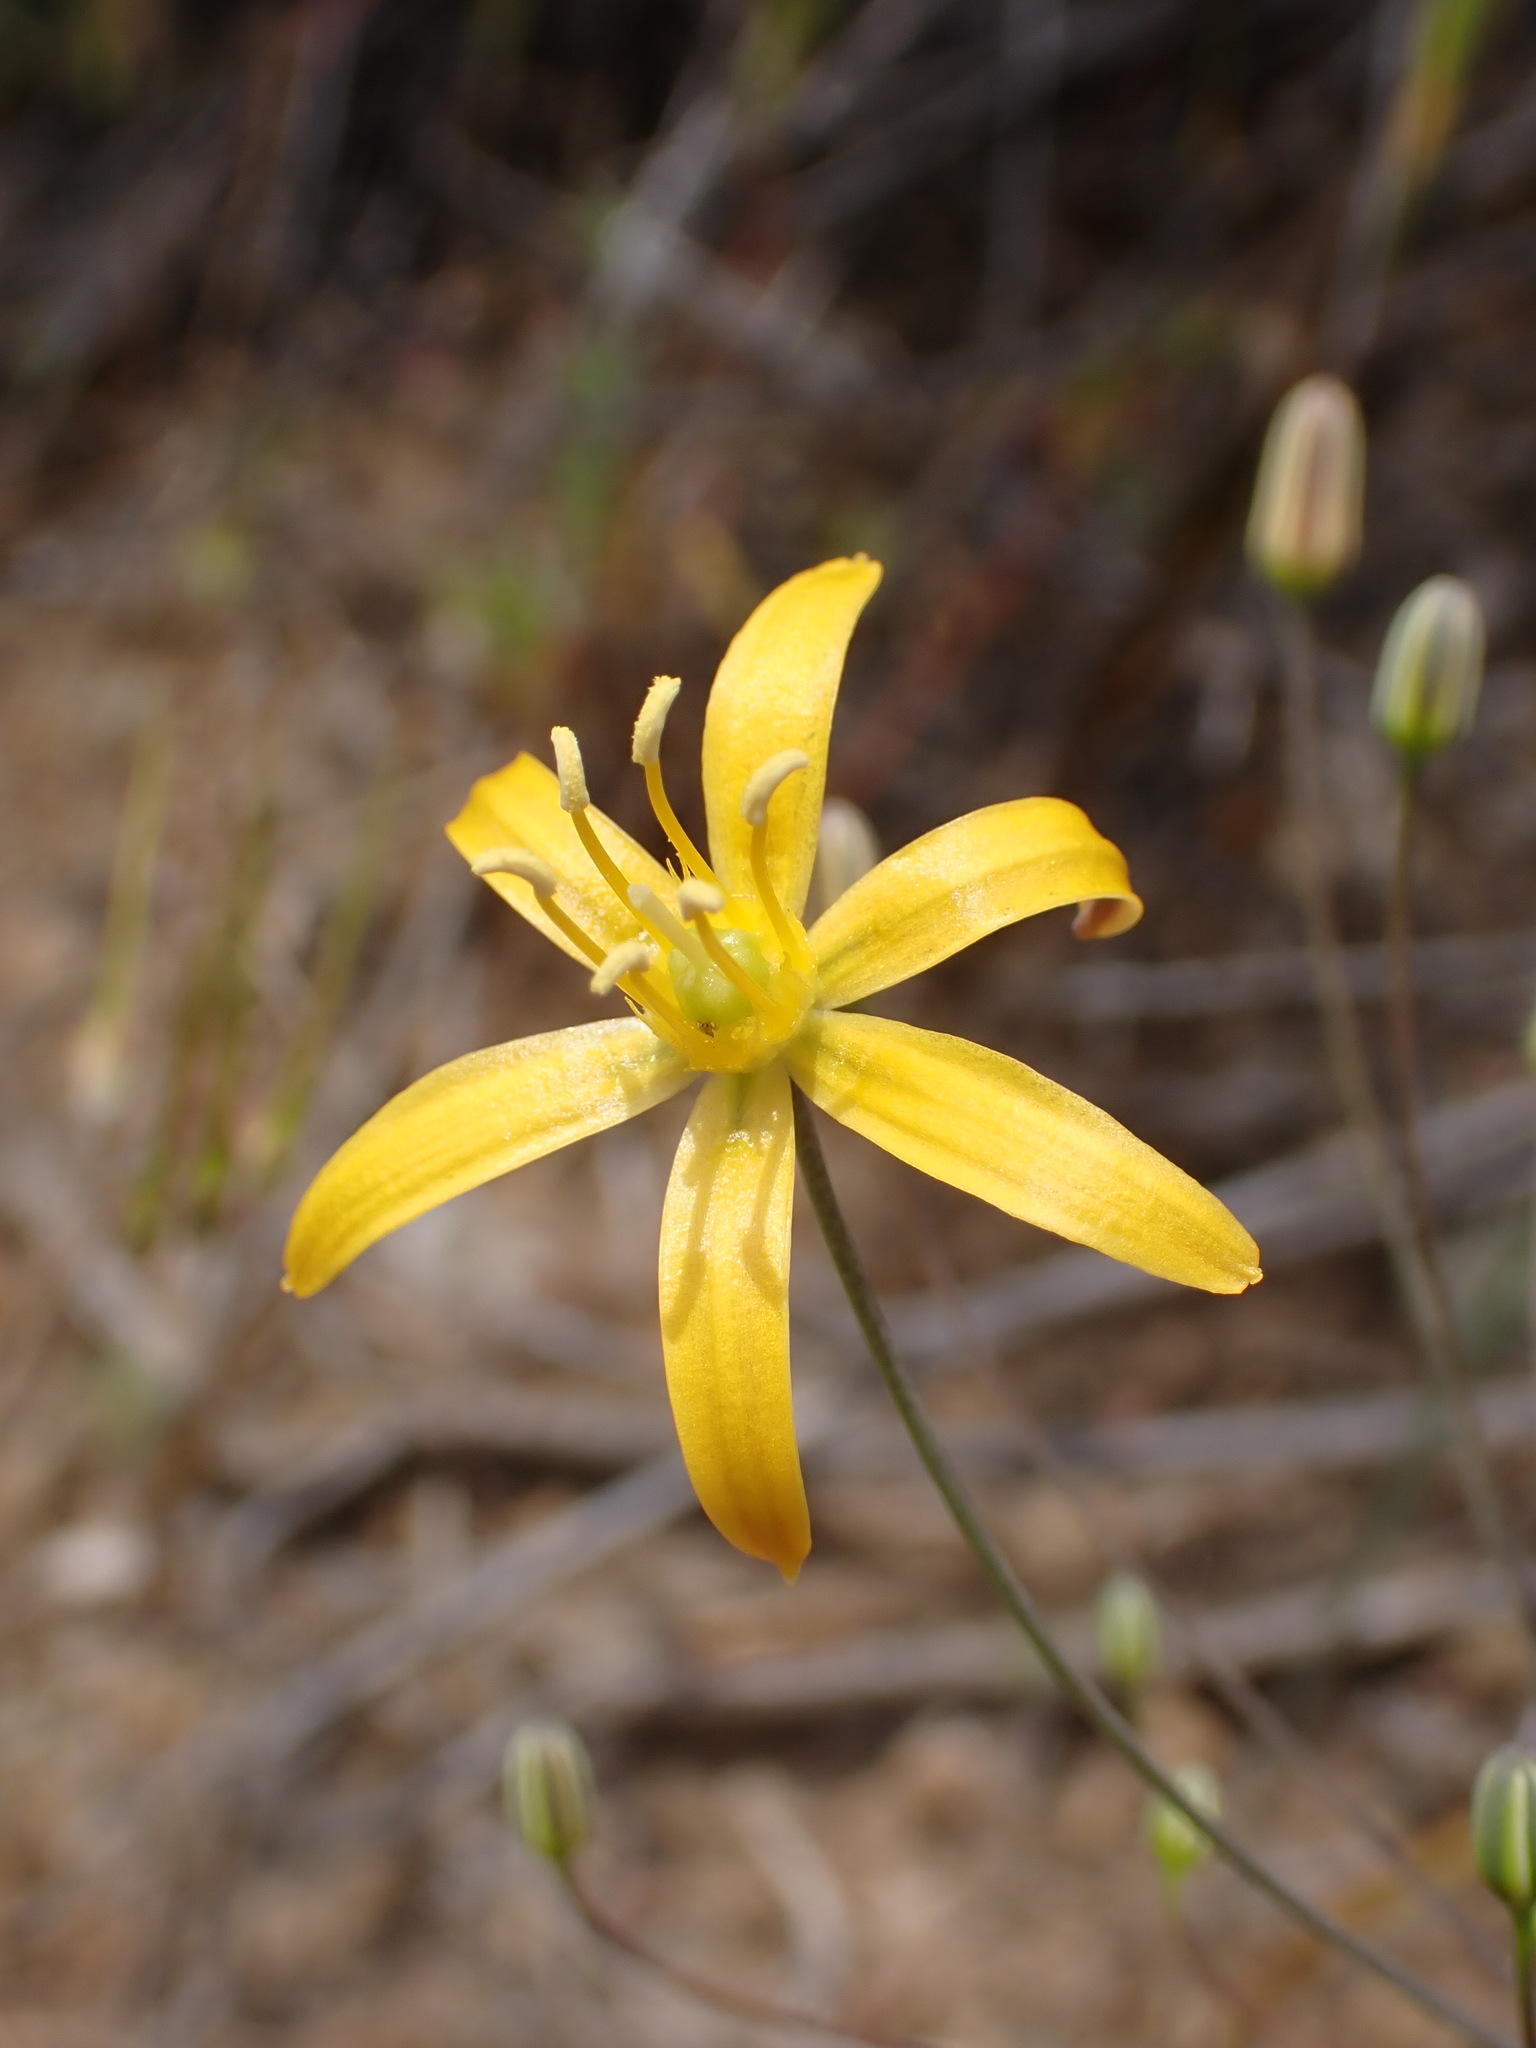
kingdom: Plantae
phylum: Tracheophyta
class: Liliopsida
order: Asparagales
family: Asparagaceae
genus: Bloomeria
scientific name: Bloomeria crocea
